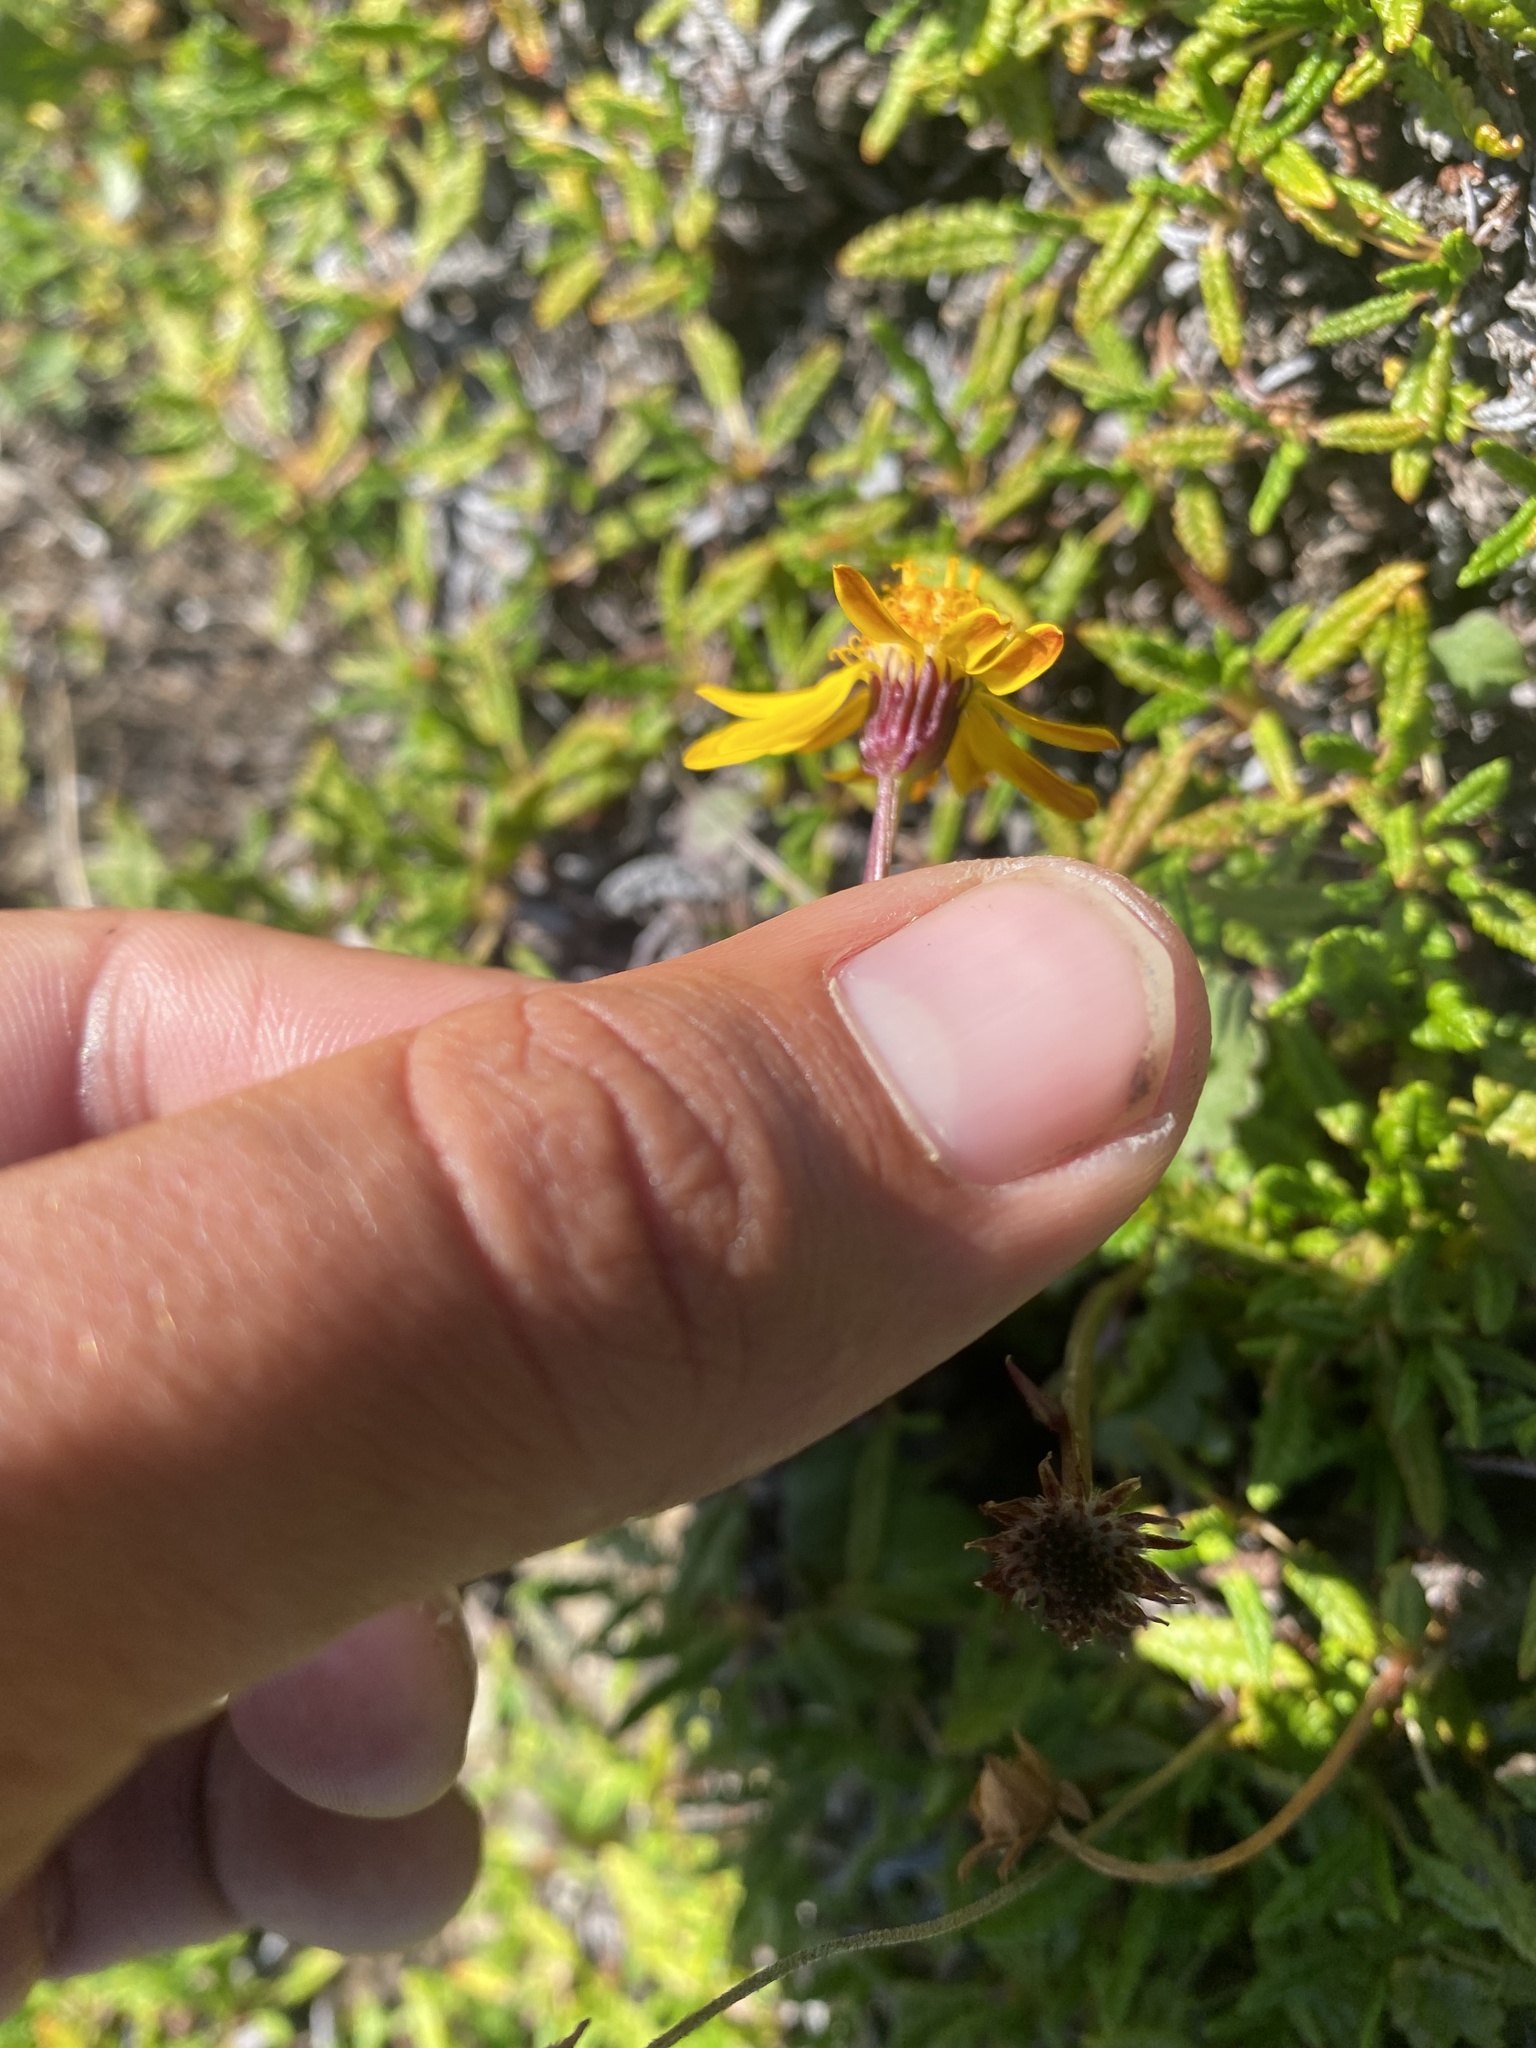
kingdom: Plantae
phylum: Tracheophyta
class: Magnoliopsida
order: Asterales
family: Asteraceae
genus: Packera
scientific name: Packera heterophylla
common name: Arctic butterweed
